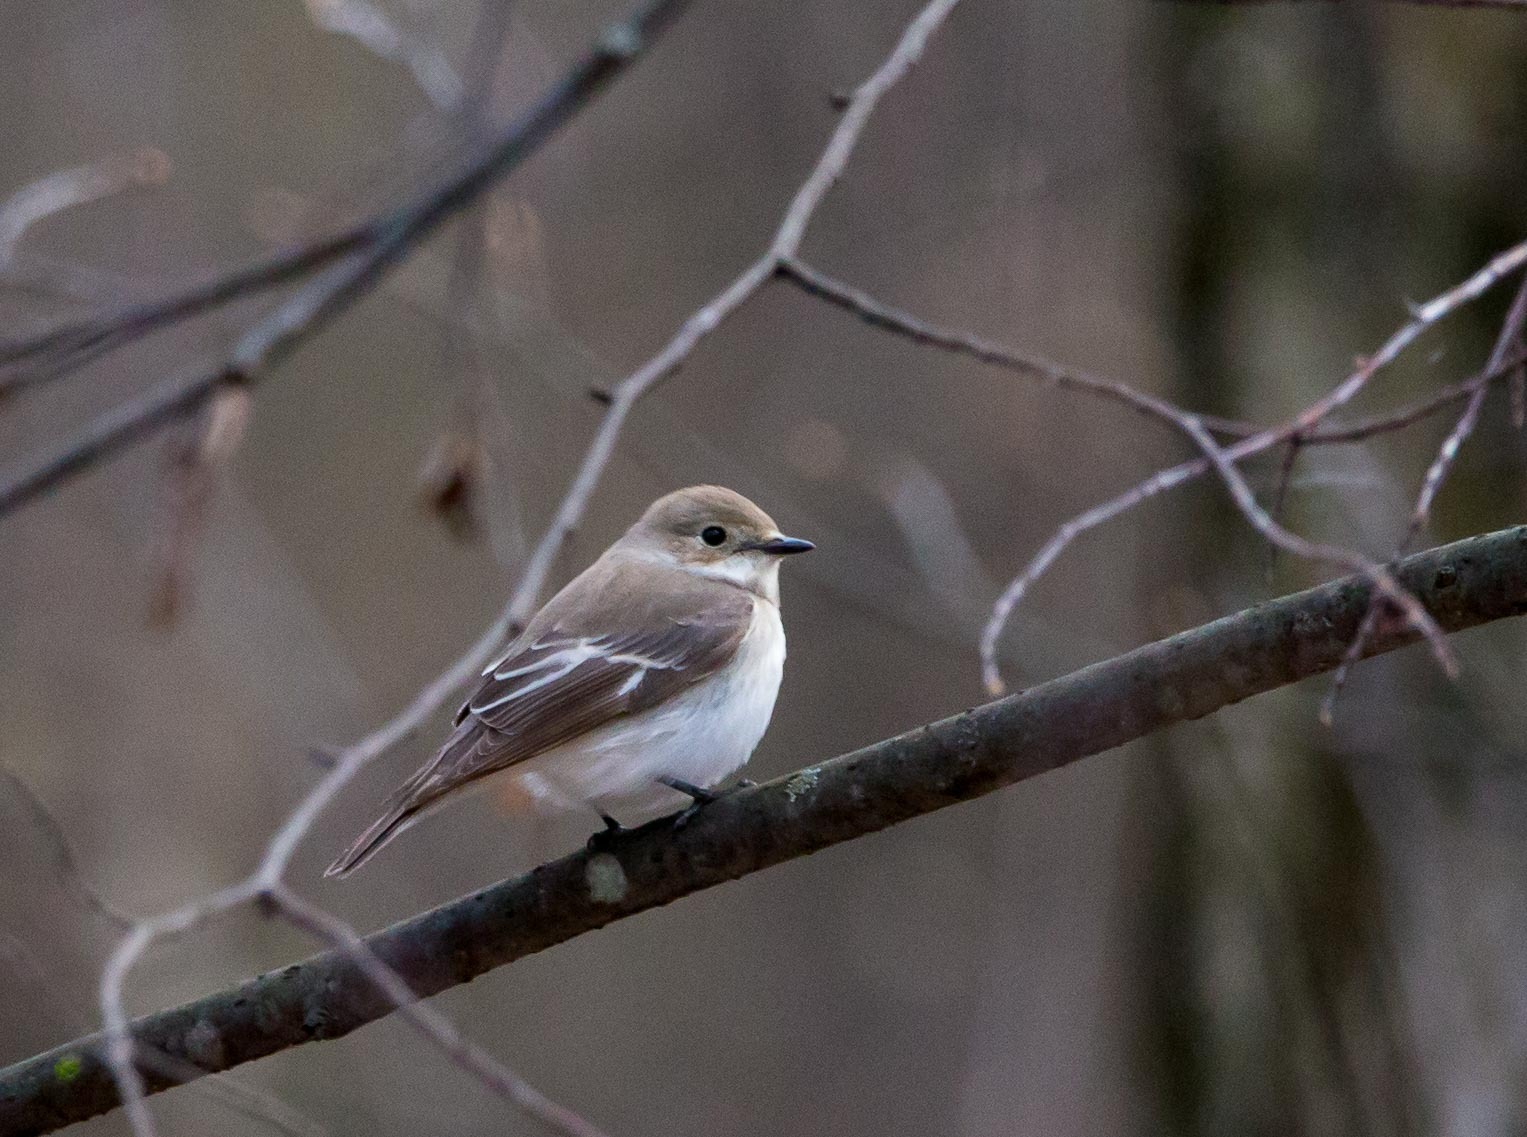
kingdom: Animalia
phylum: Chordata
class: Aves
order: Passeriformes
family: Muscicapidae
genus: Ficedula
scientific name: Ficedula hypoleuca
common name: European pied flycatcher
